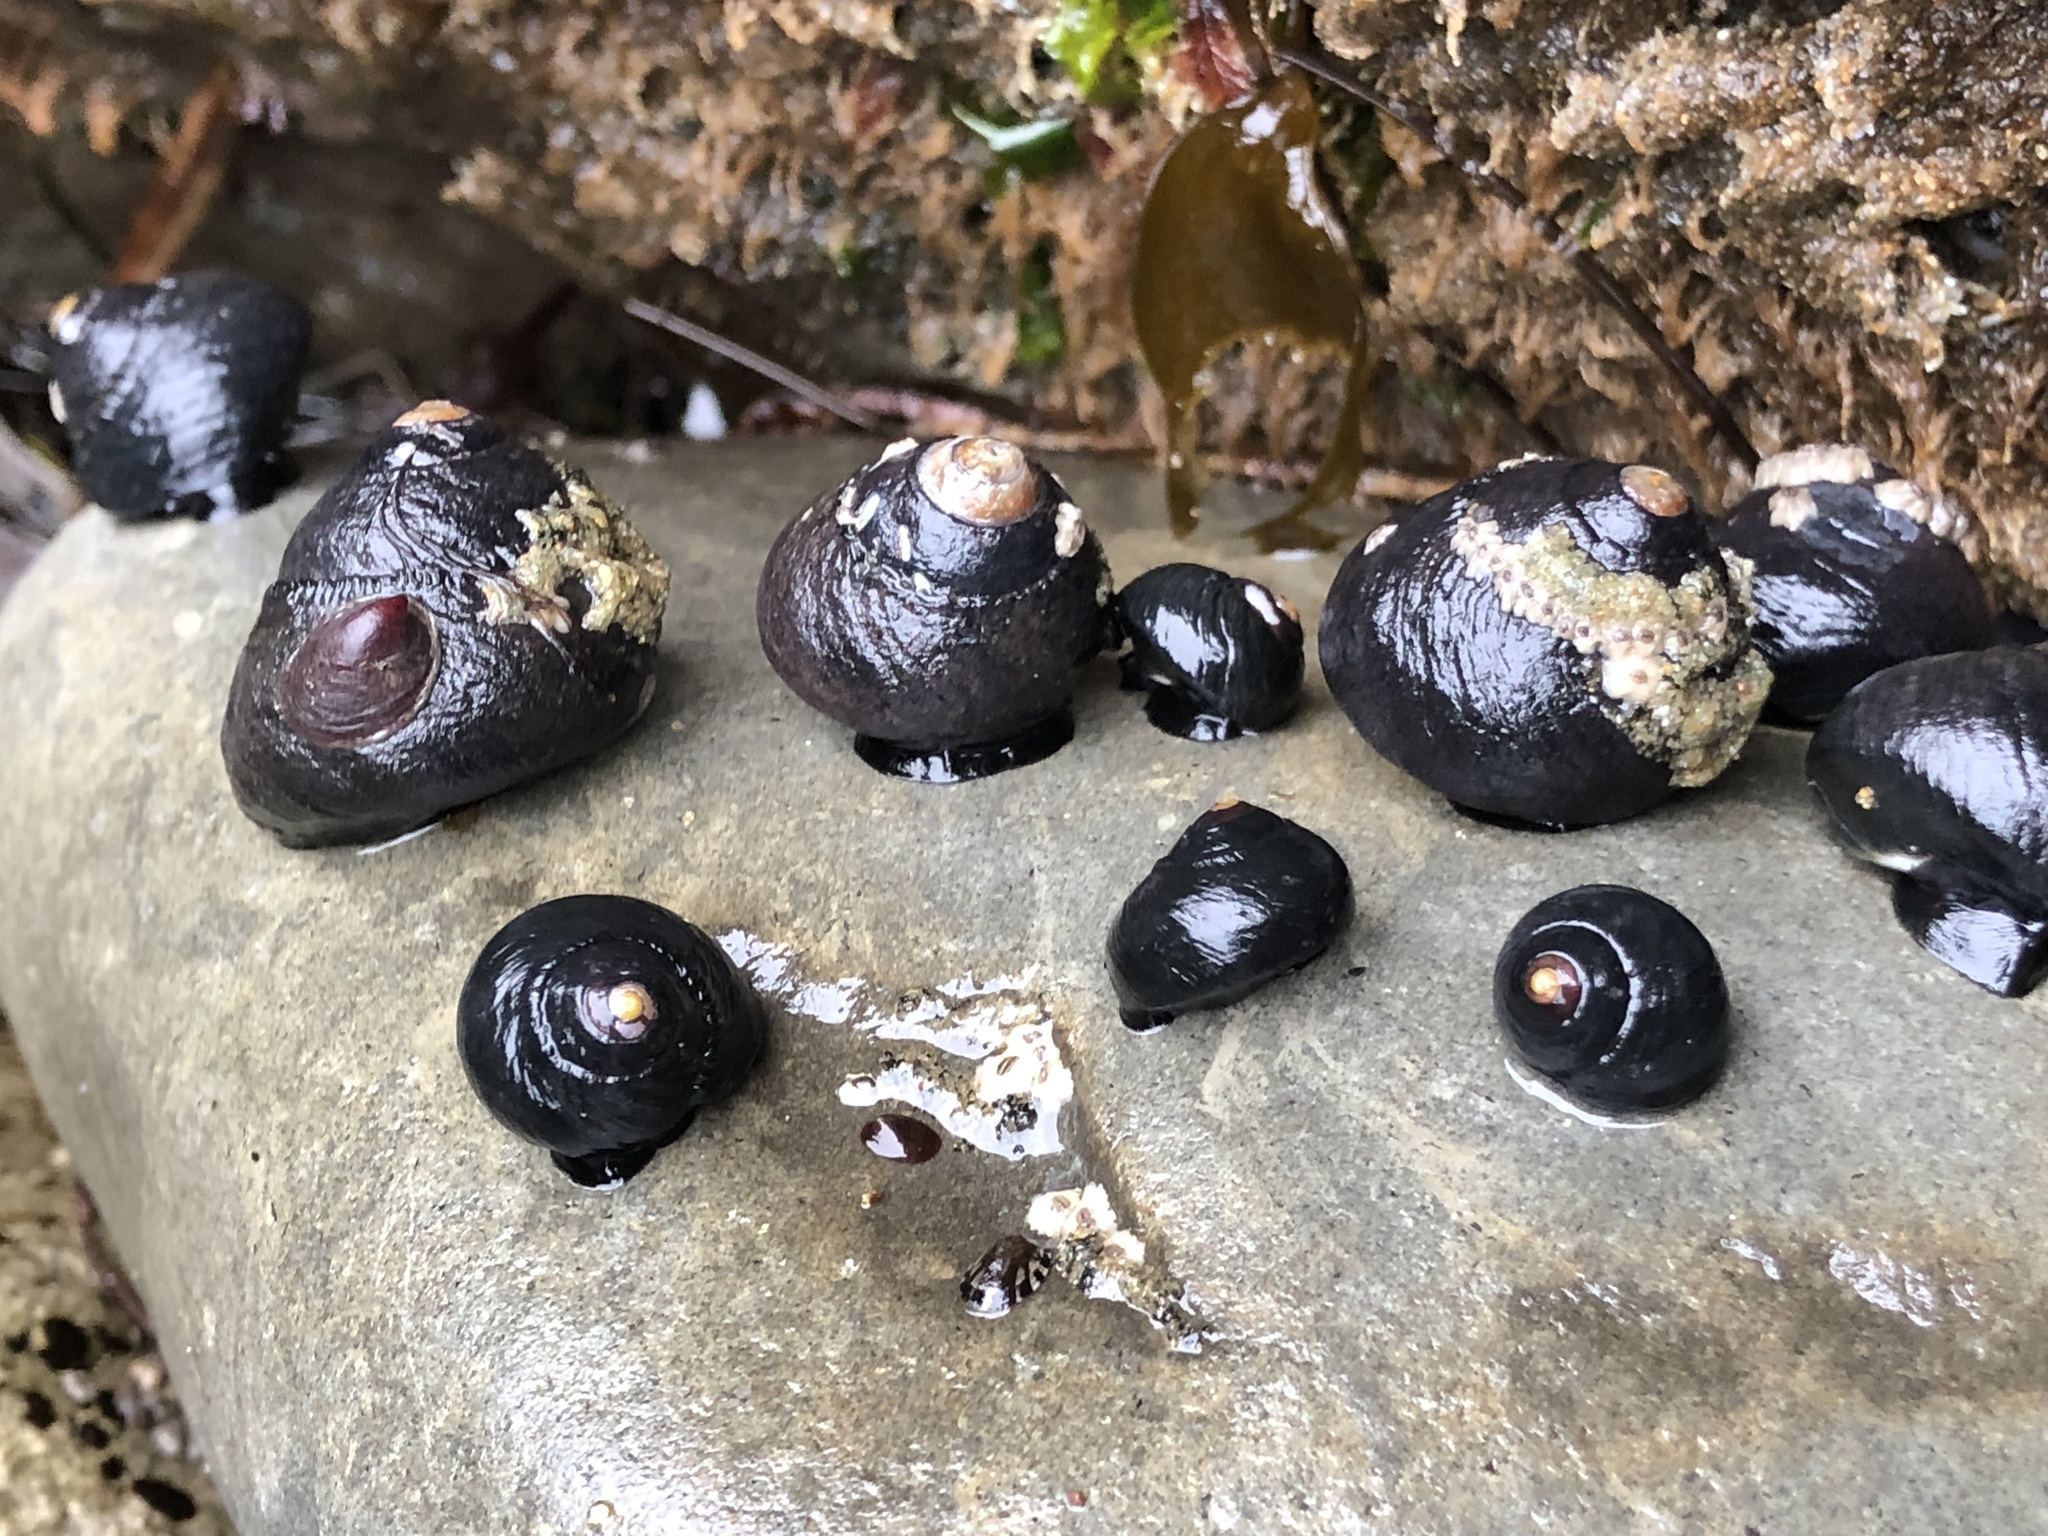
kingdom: Animalia
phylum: Mollusca
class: Gastropoda
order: Trochida
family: Tegulidae
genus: Tegula
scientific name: Tegula funebralis
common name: Black tegula
